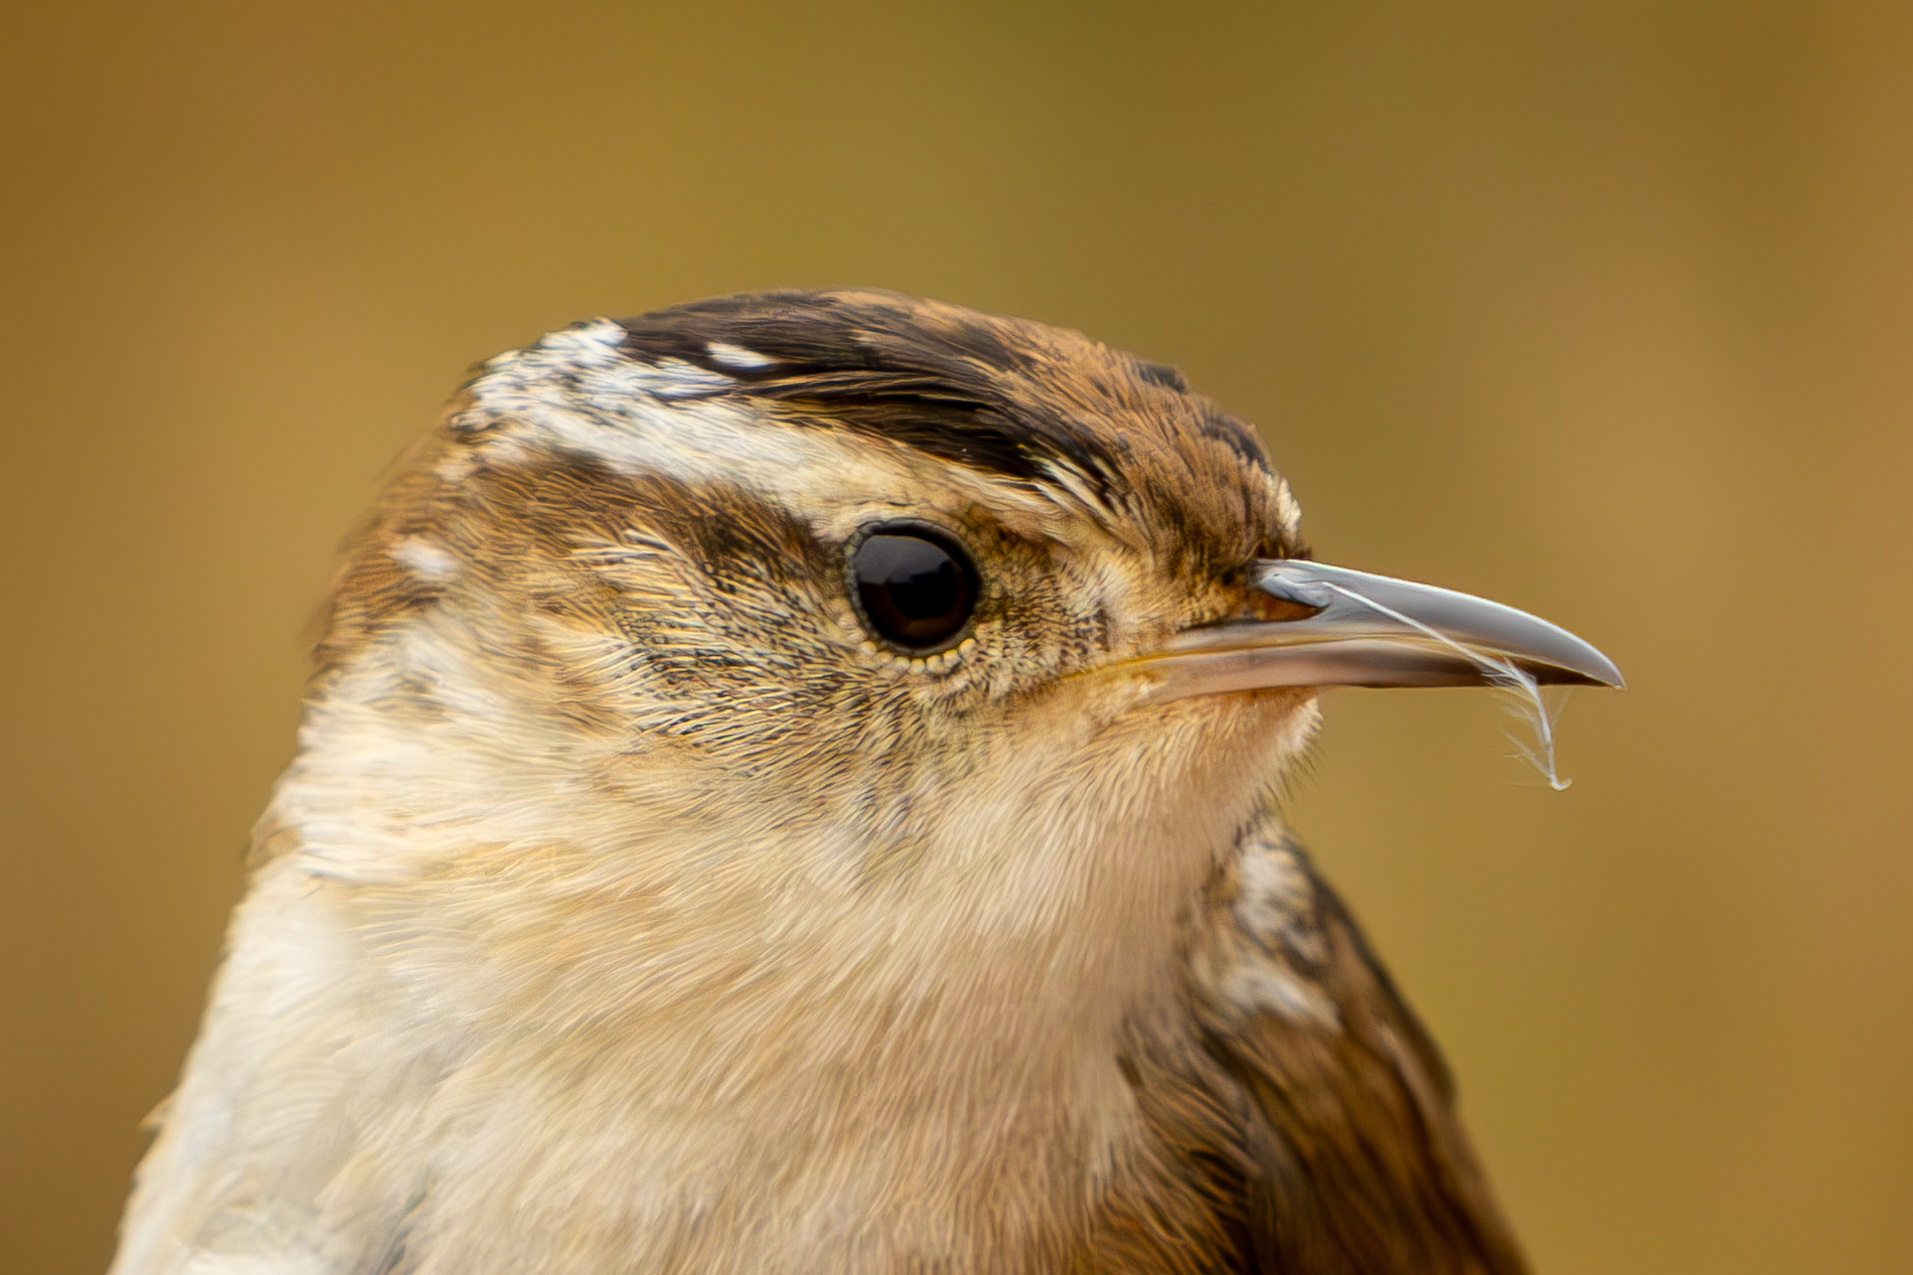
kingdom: Animalia
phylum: Chordata
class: Aves
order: Passeriformes
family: Troglodytidae
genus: Cistothorus
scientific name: Cistothorus palustris
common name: Marsh wren
